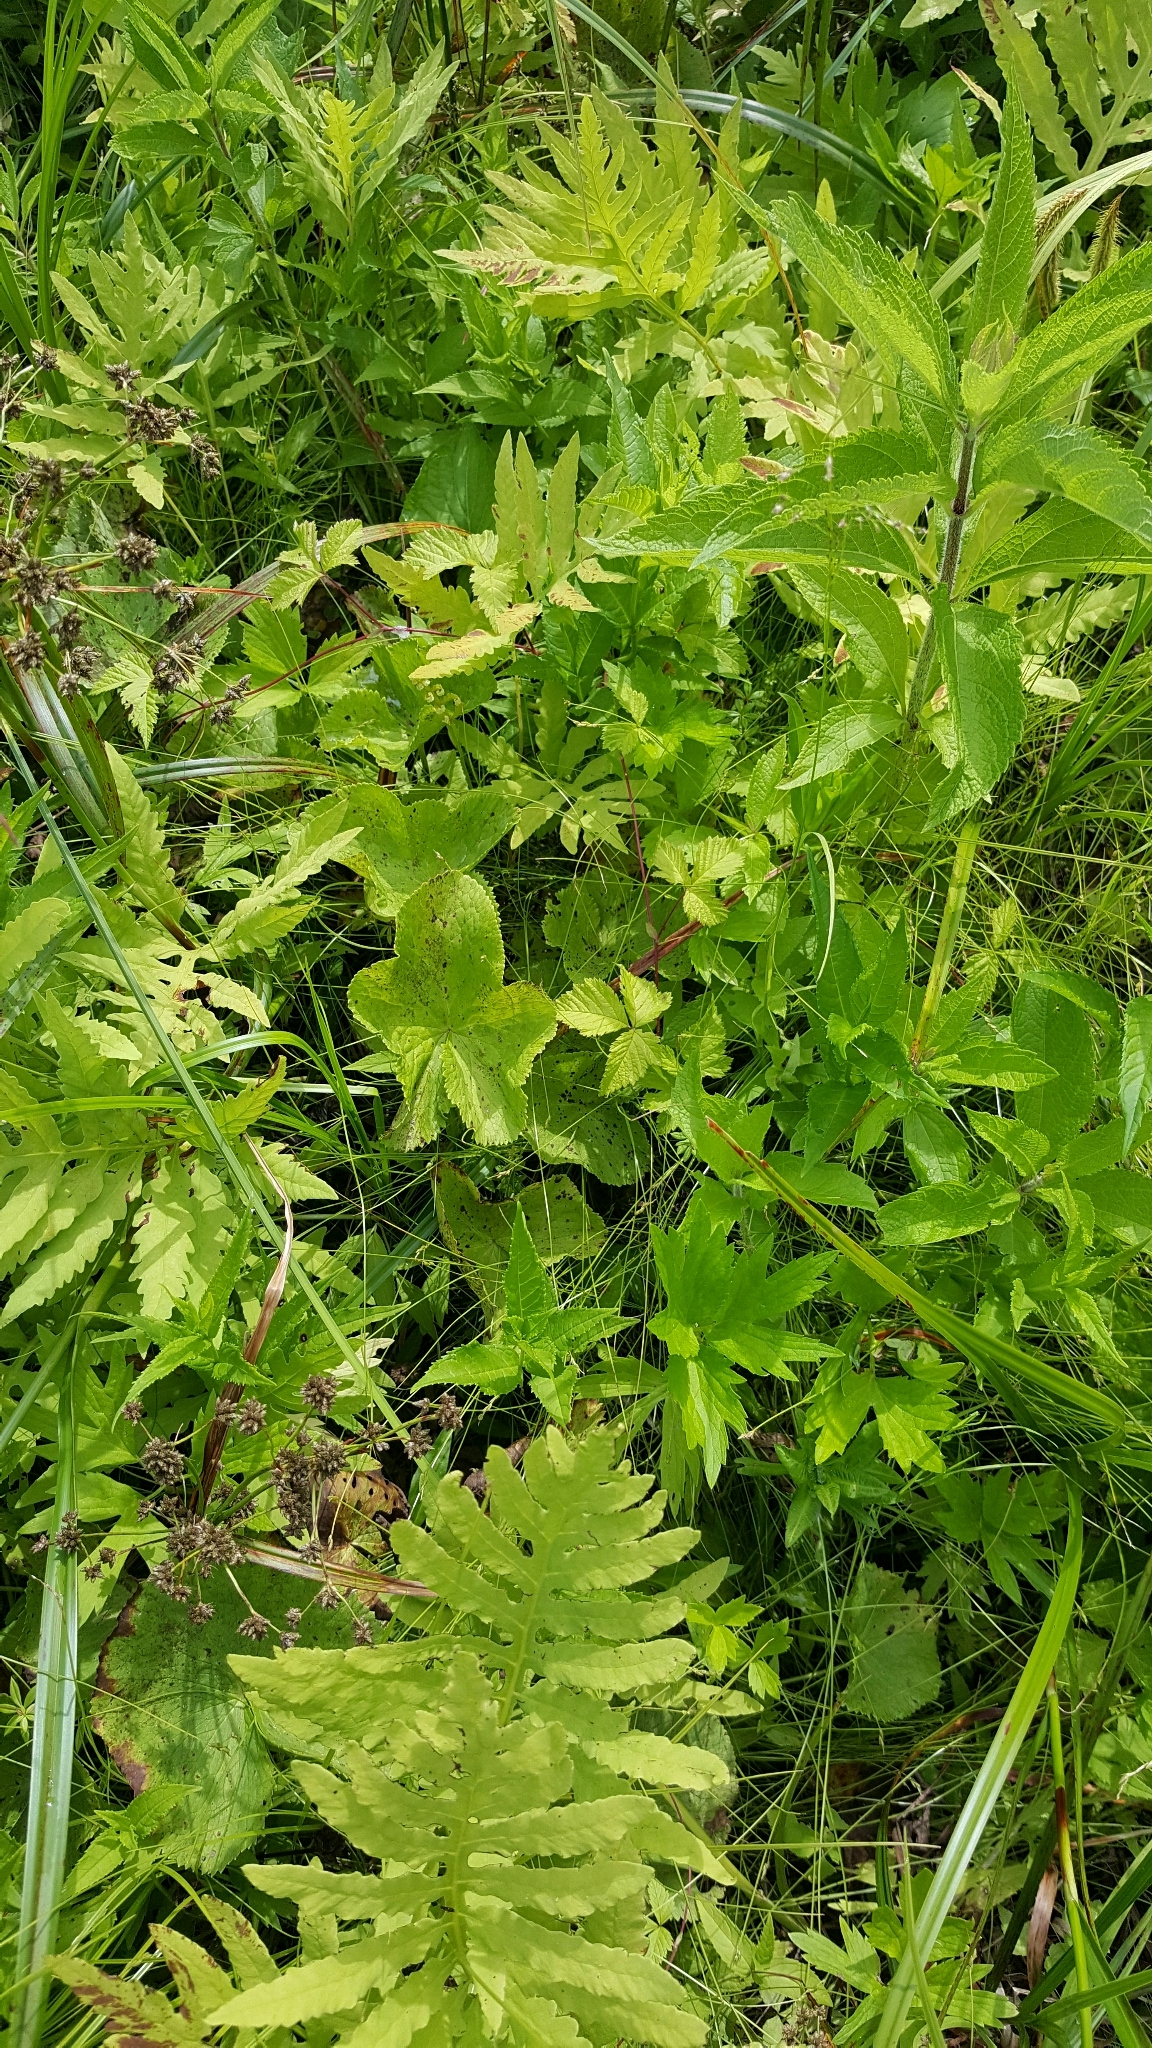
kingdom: Plantae
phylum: Tracheophyta
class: Magnoliopsida
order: Ranunculales
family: Ranunculaceae
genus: Caltha
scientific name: Caltha palustris
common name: Marsh marigold
